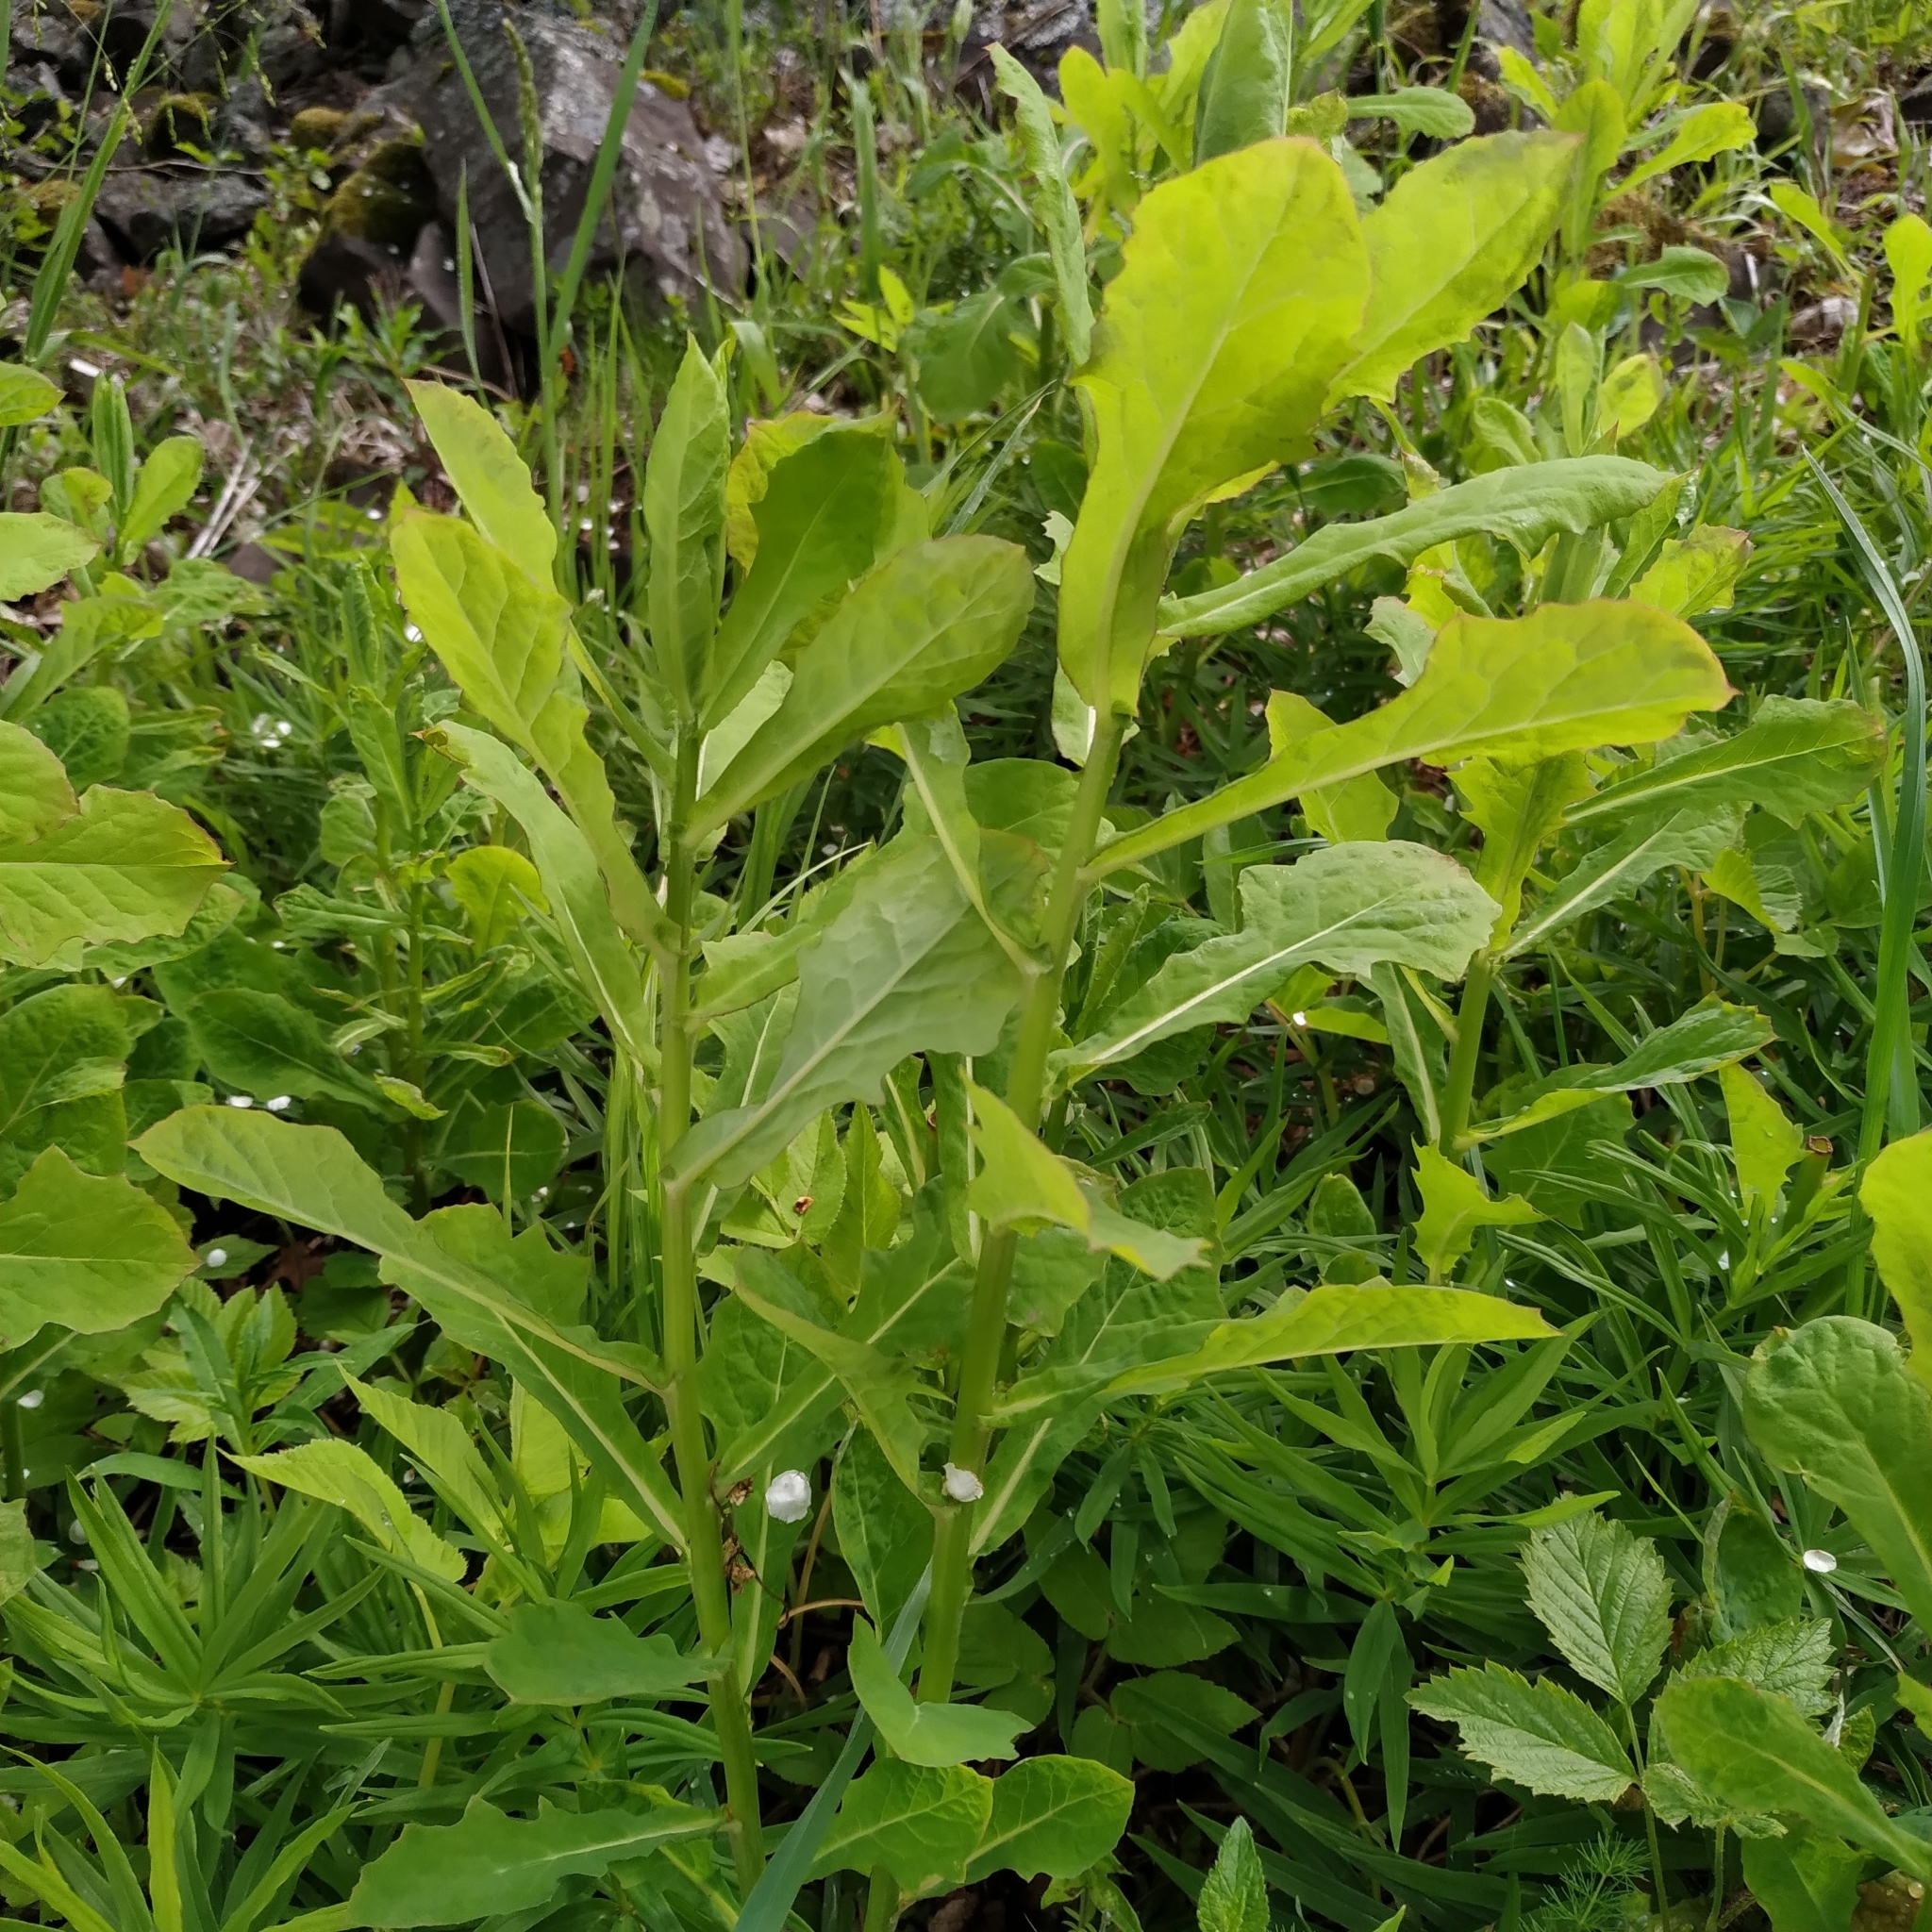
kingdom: Plantae
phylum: Tracheophyta
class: Magnoliopsida
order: Asterales
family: Asteraceae
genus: Prenanthes
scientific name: Prenanthes purpurea
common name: Purple lettuce
